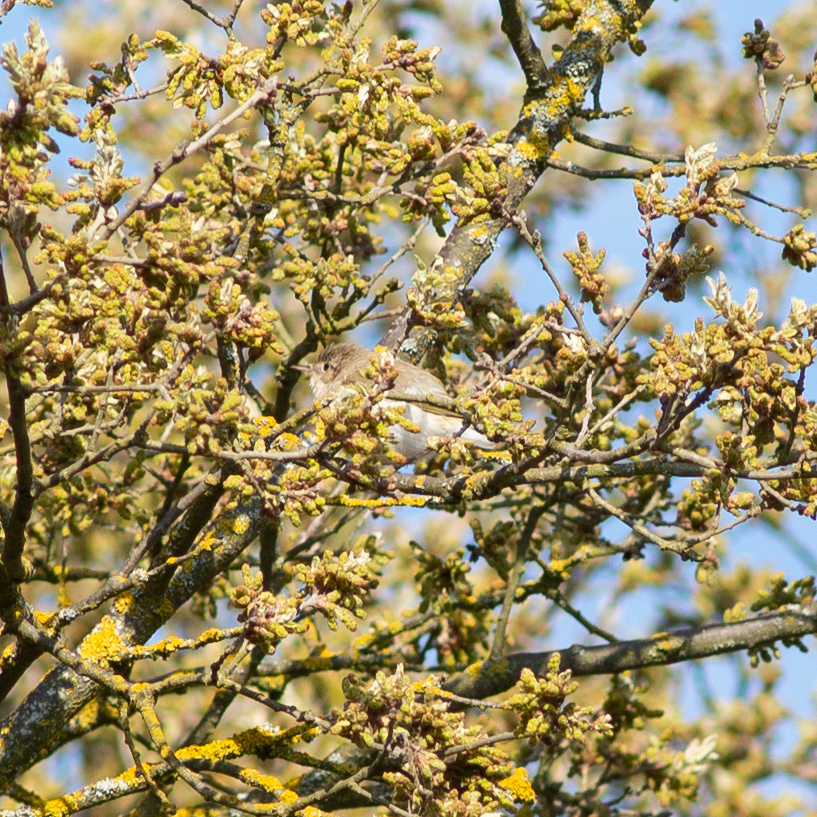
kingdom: Animalia
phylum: Chordata
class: Aves
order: Passeriformes
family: Phylloscopidae
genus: Phylloscopus
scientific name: Phylloscopus bonelli
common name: Western bonelli's warbler
